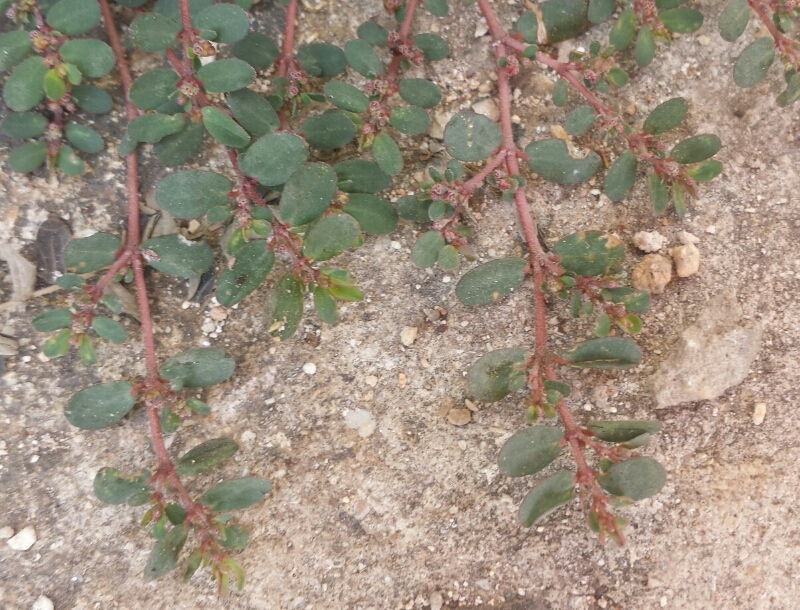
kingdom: Plantae
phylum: Tracheophyta
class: Magnoliopsida
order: Malpighiales
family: Euphorbiaceae
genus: Euphorbia
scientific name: Euphorbia prostrata
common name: Prostrate sandmat
